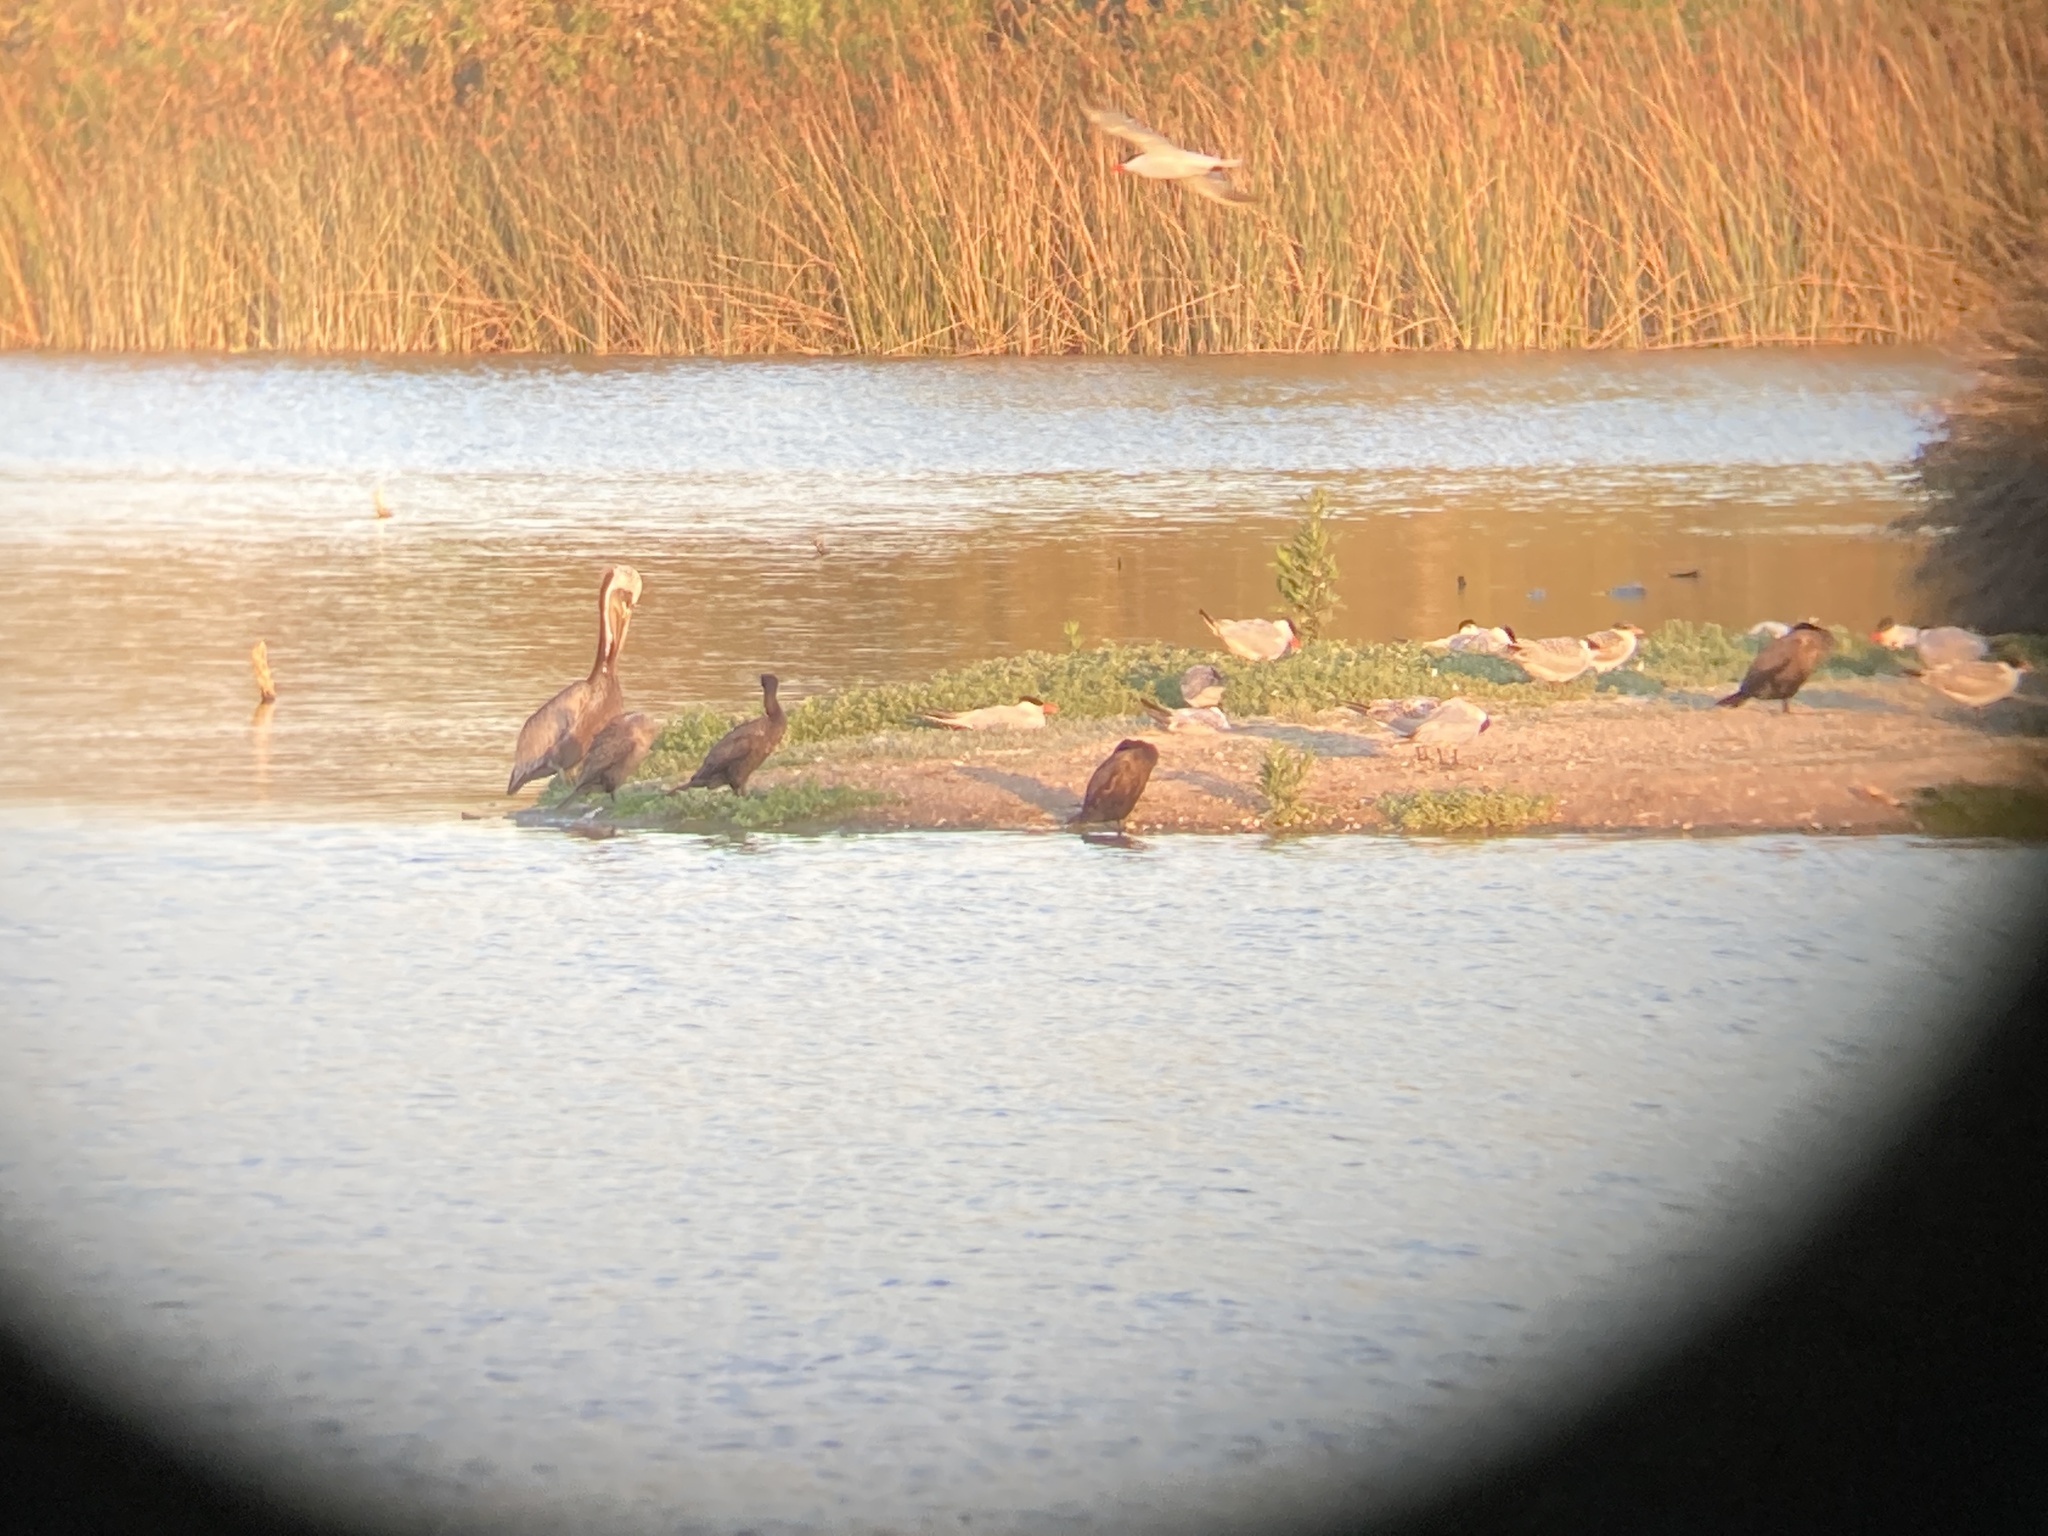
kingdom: Animalia
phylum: Chordata
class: Aves
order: Suliformes
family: Phalacrocoracidae
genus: Phalacrocorax
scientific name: Phalacrocorax auritus
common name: Double-crested cormorant
